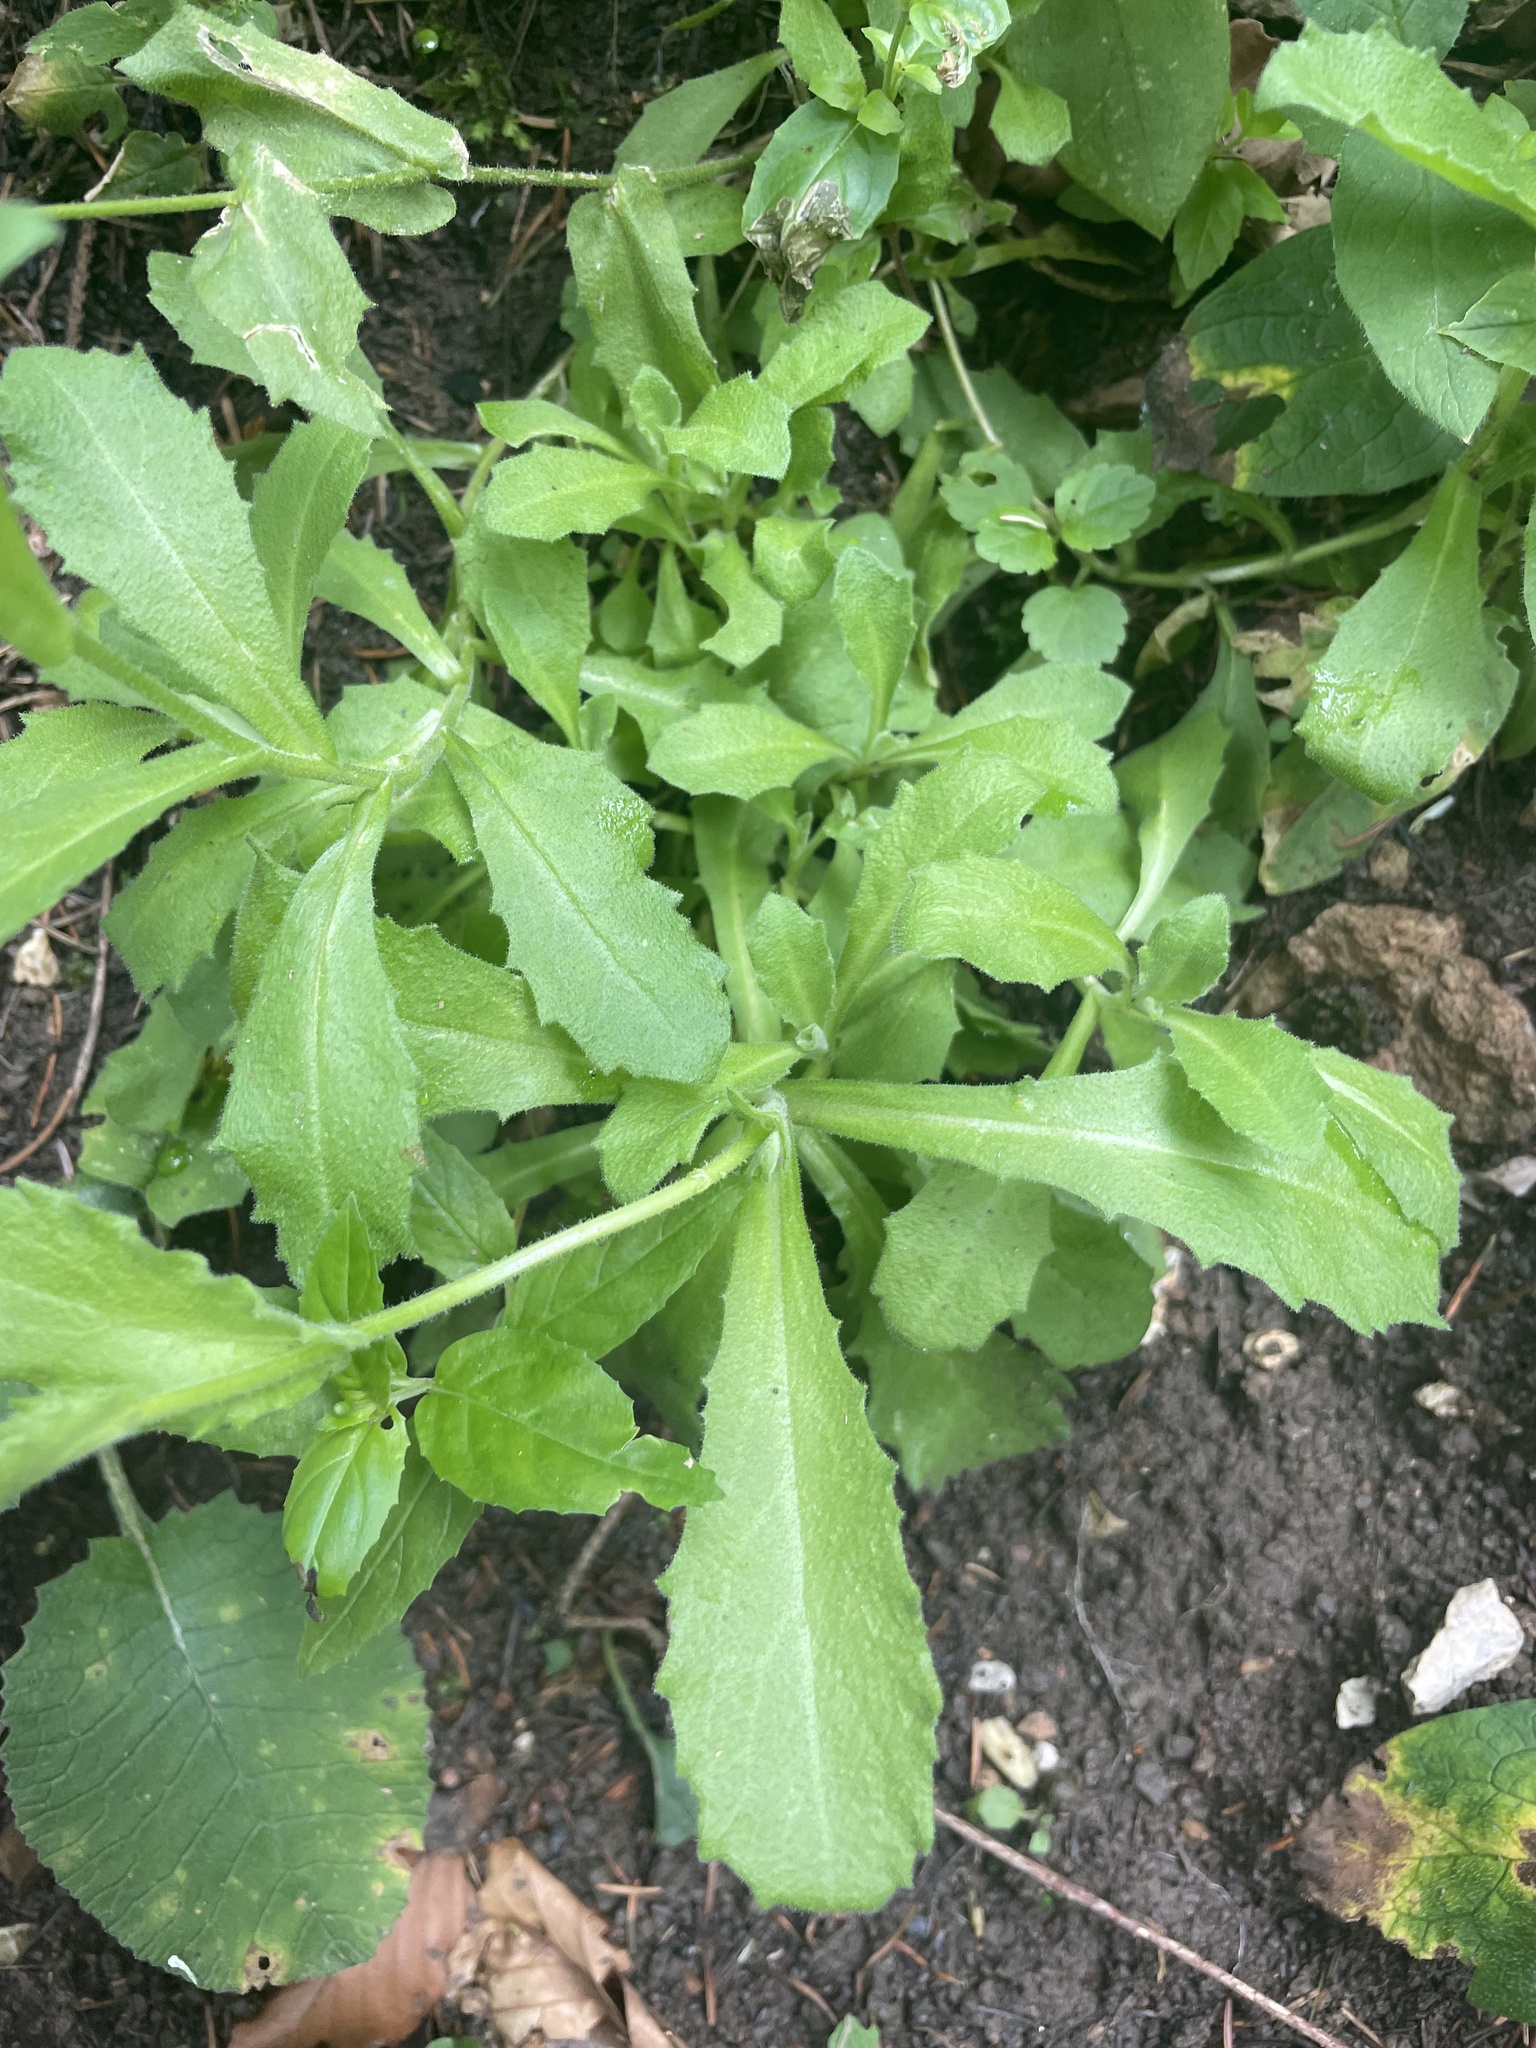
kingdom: Plantae
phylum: Tracheophyta
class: Magnoliopsida
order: Brassicales
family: Brassicaceae
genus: Arabis
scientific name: Arabis alpina
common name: Alpine rock-cress
